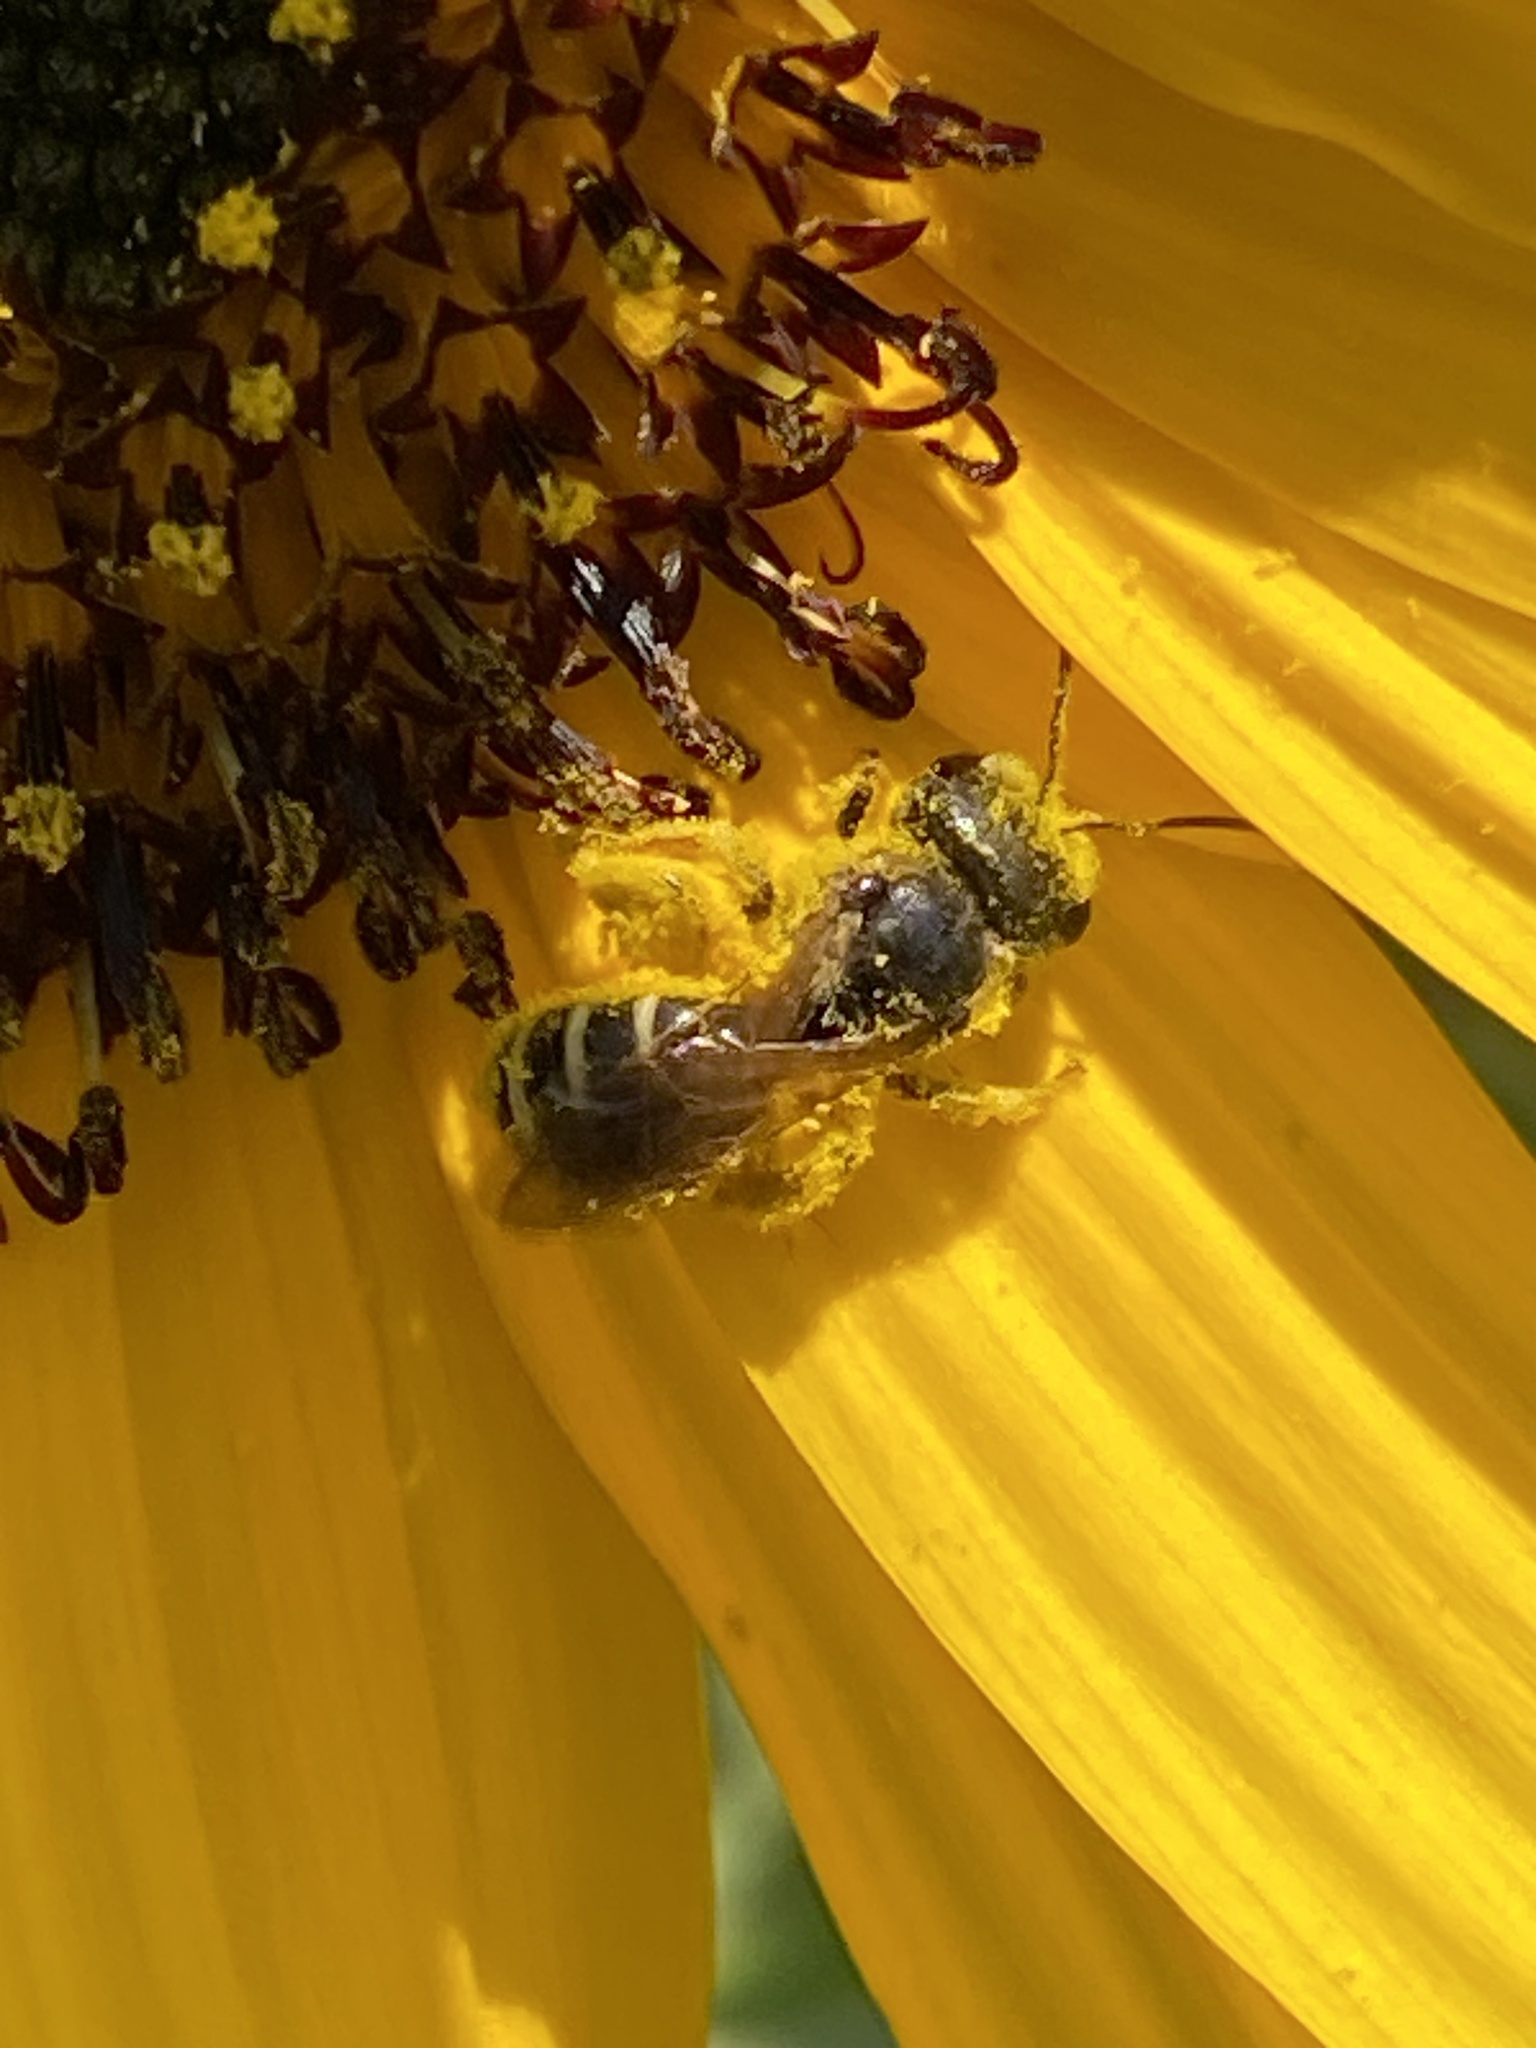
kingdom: Animalia
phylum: Arthropoda
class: Insecta
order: Hymenoptera
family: Halictidae
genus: Halictus
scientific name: Halictus ligatus
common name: Ligated furrow bee
